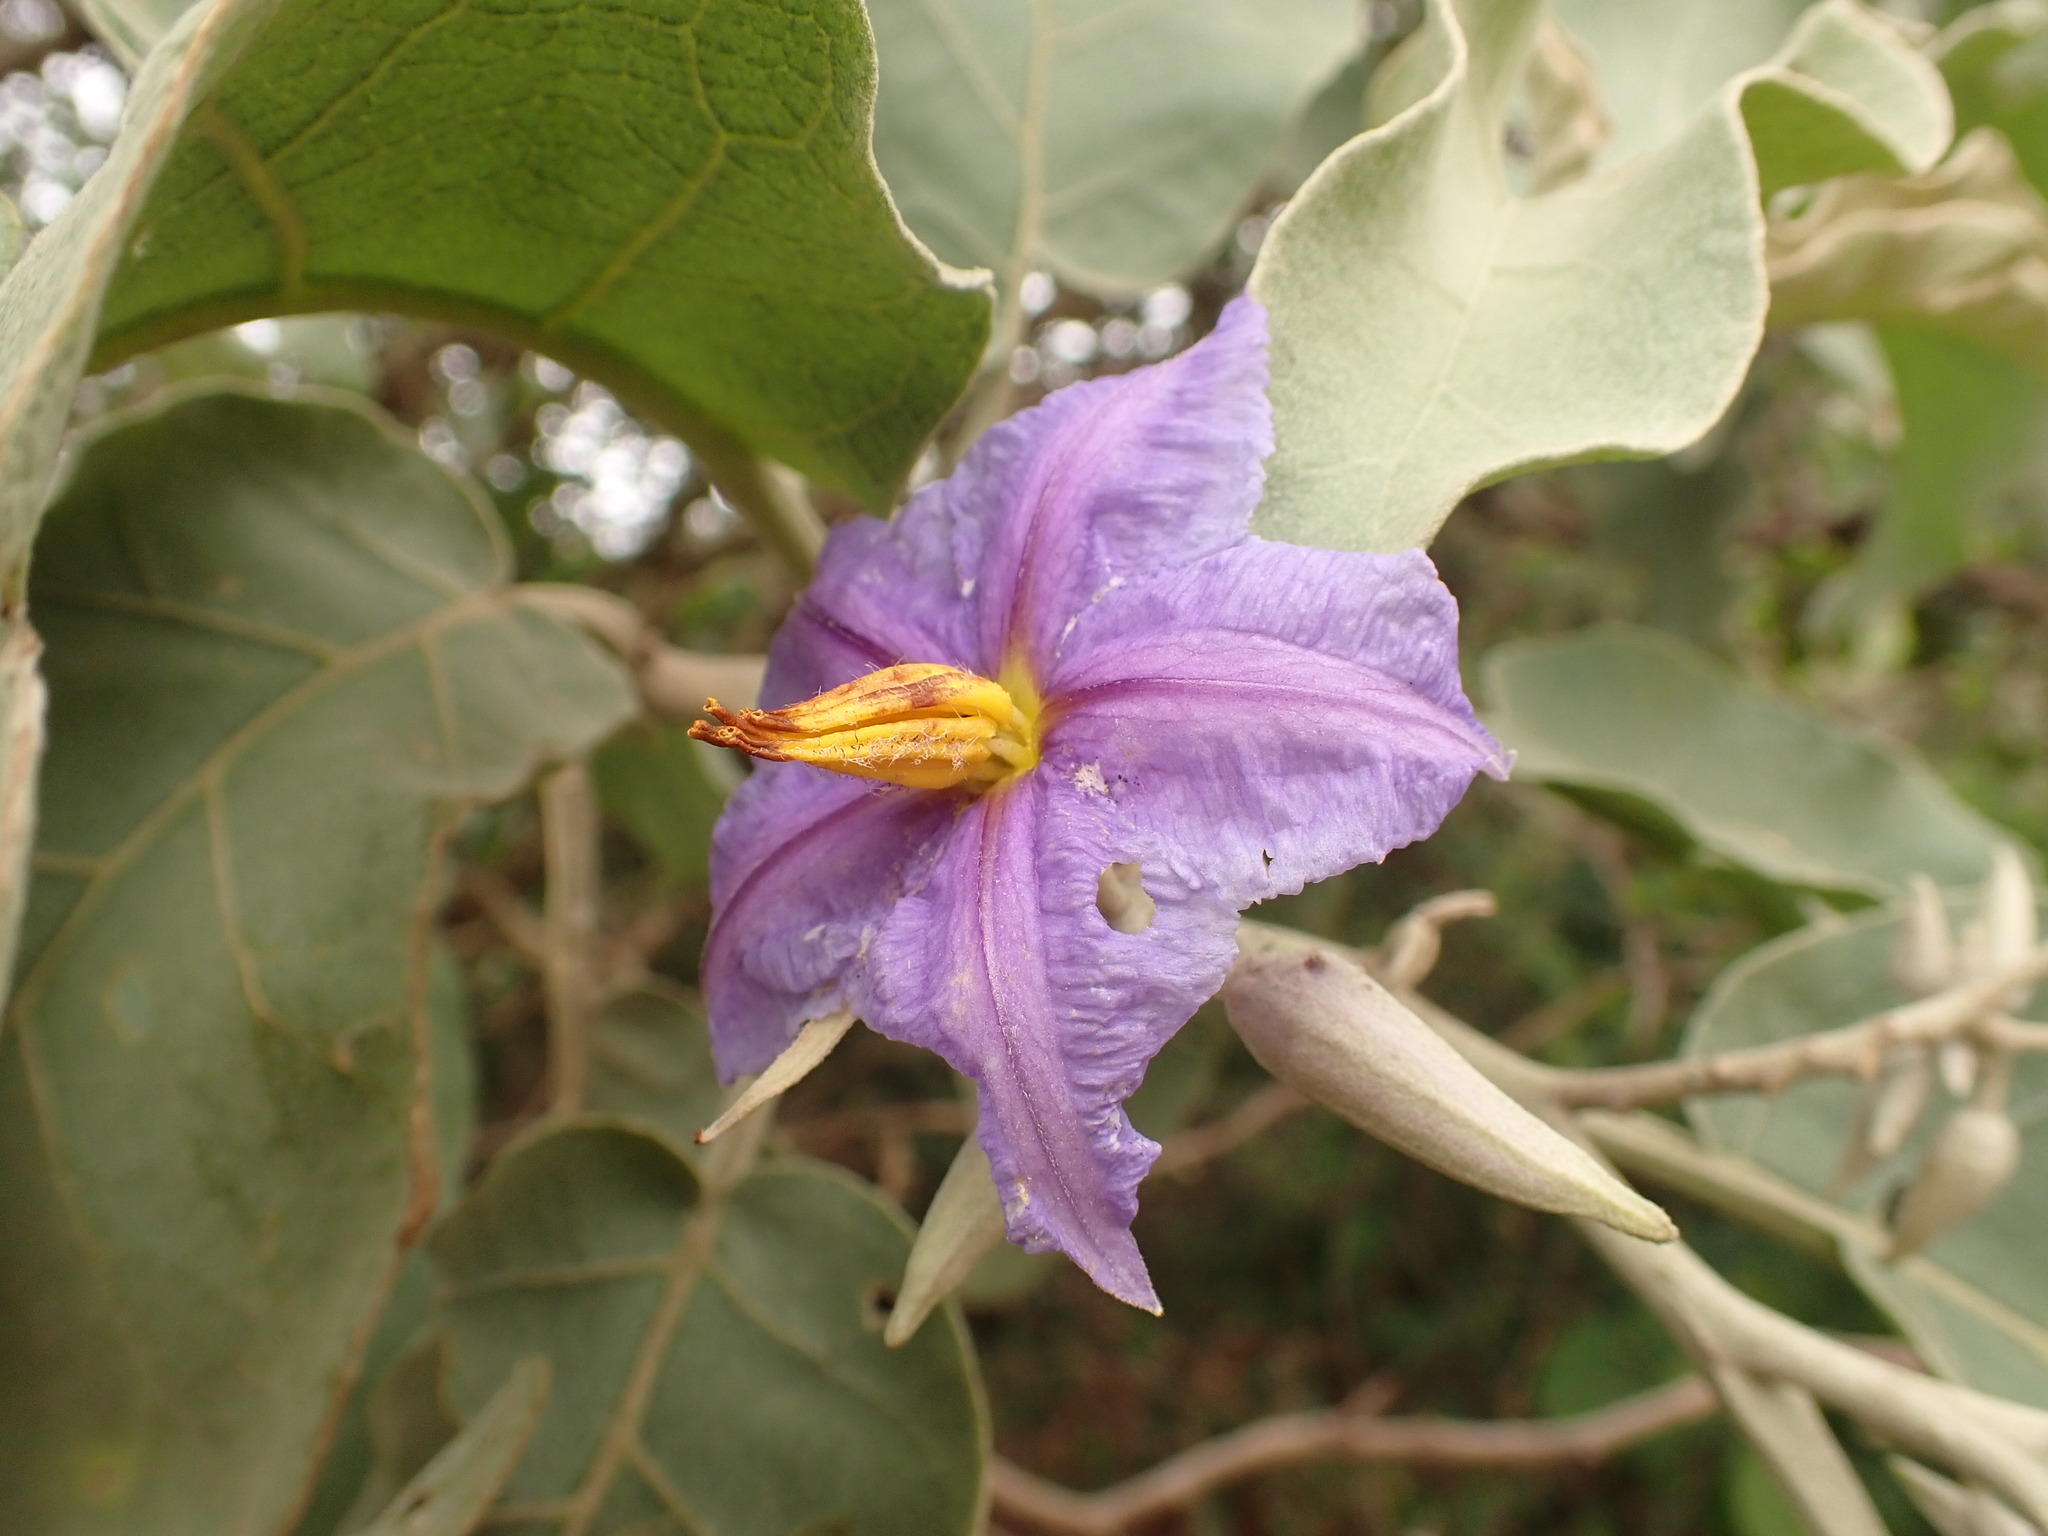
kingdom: Plantae
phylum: Tracheophyta
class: Magnoliopsida
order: Solanales
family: Solanaceae
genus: Solanum
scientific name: Solanum lycocarpum
